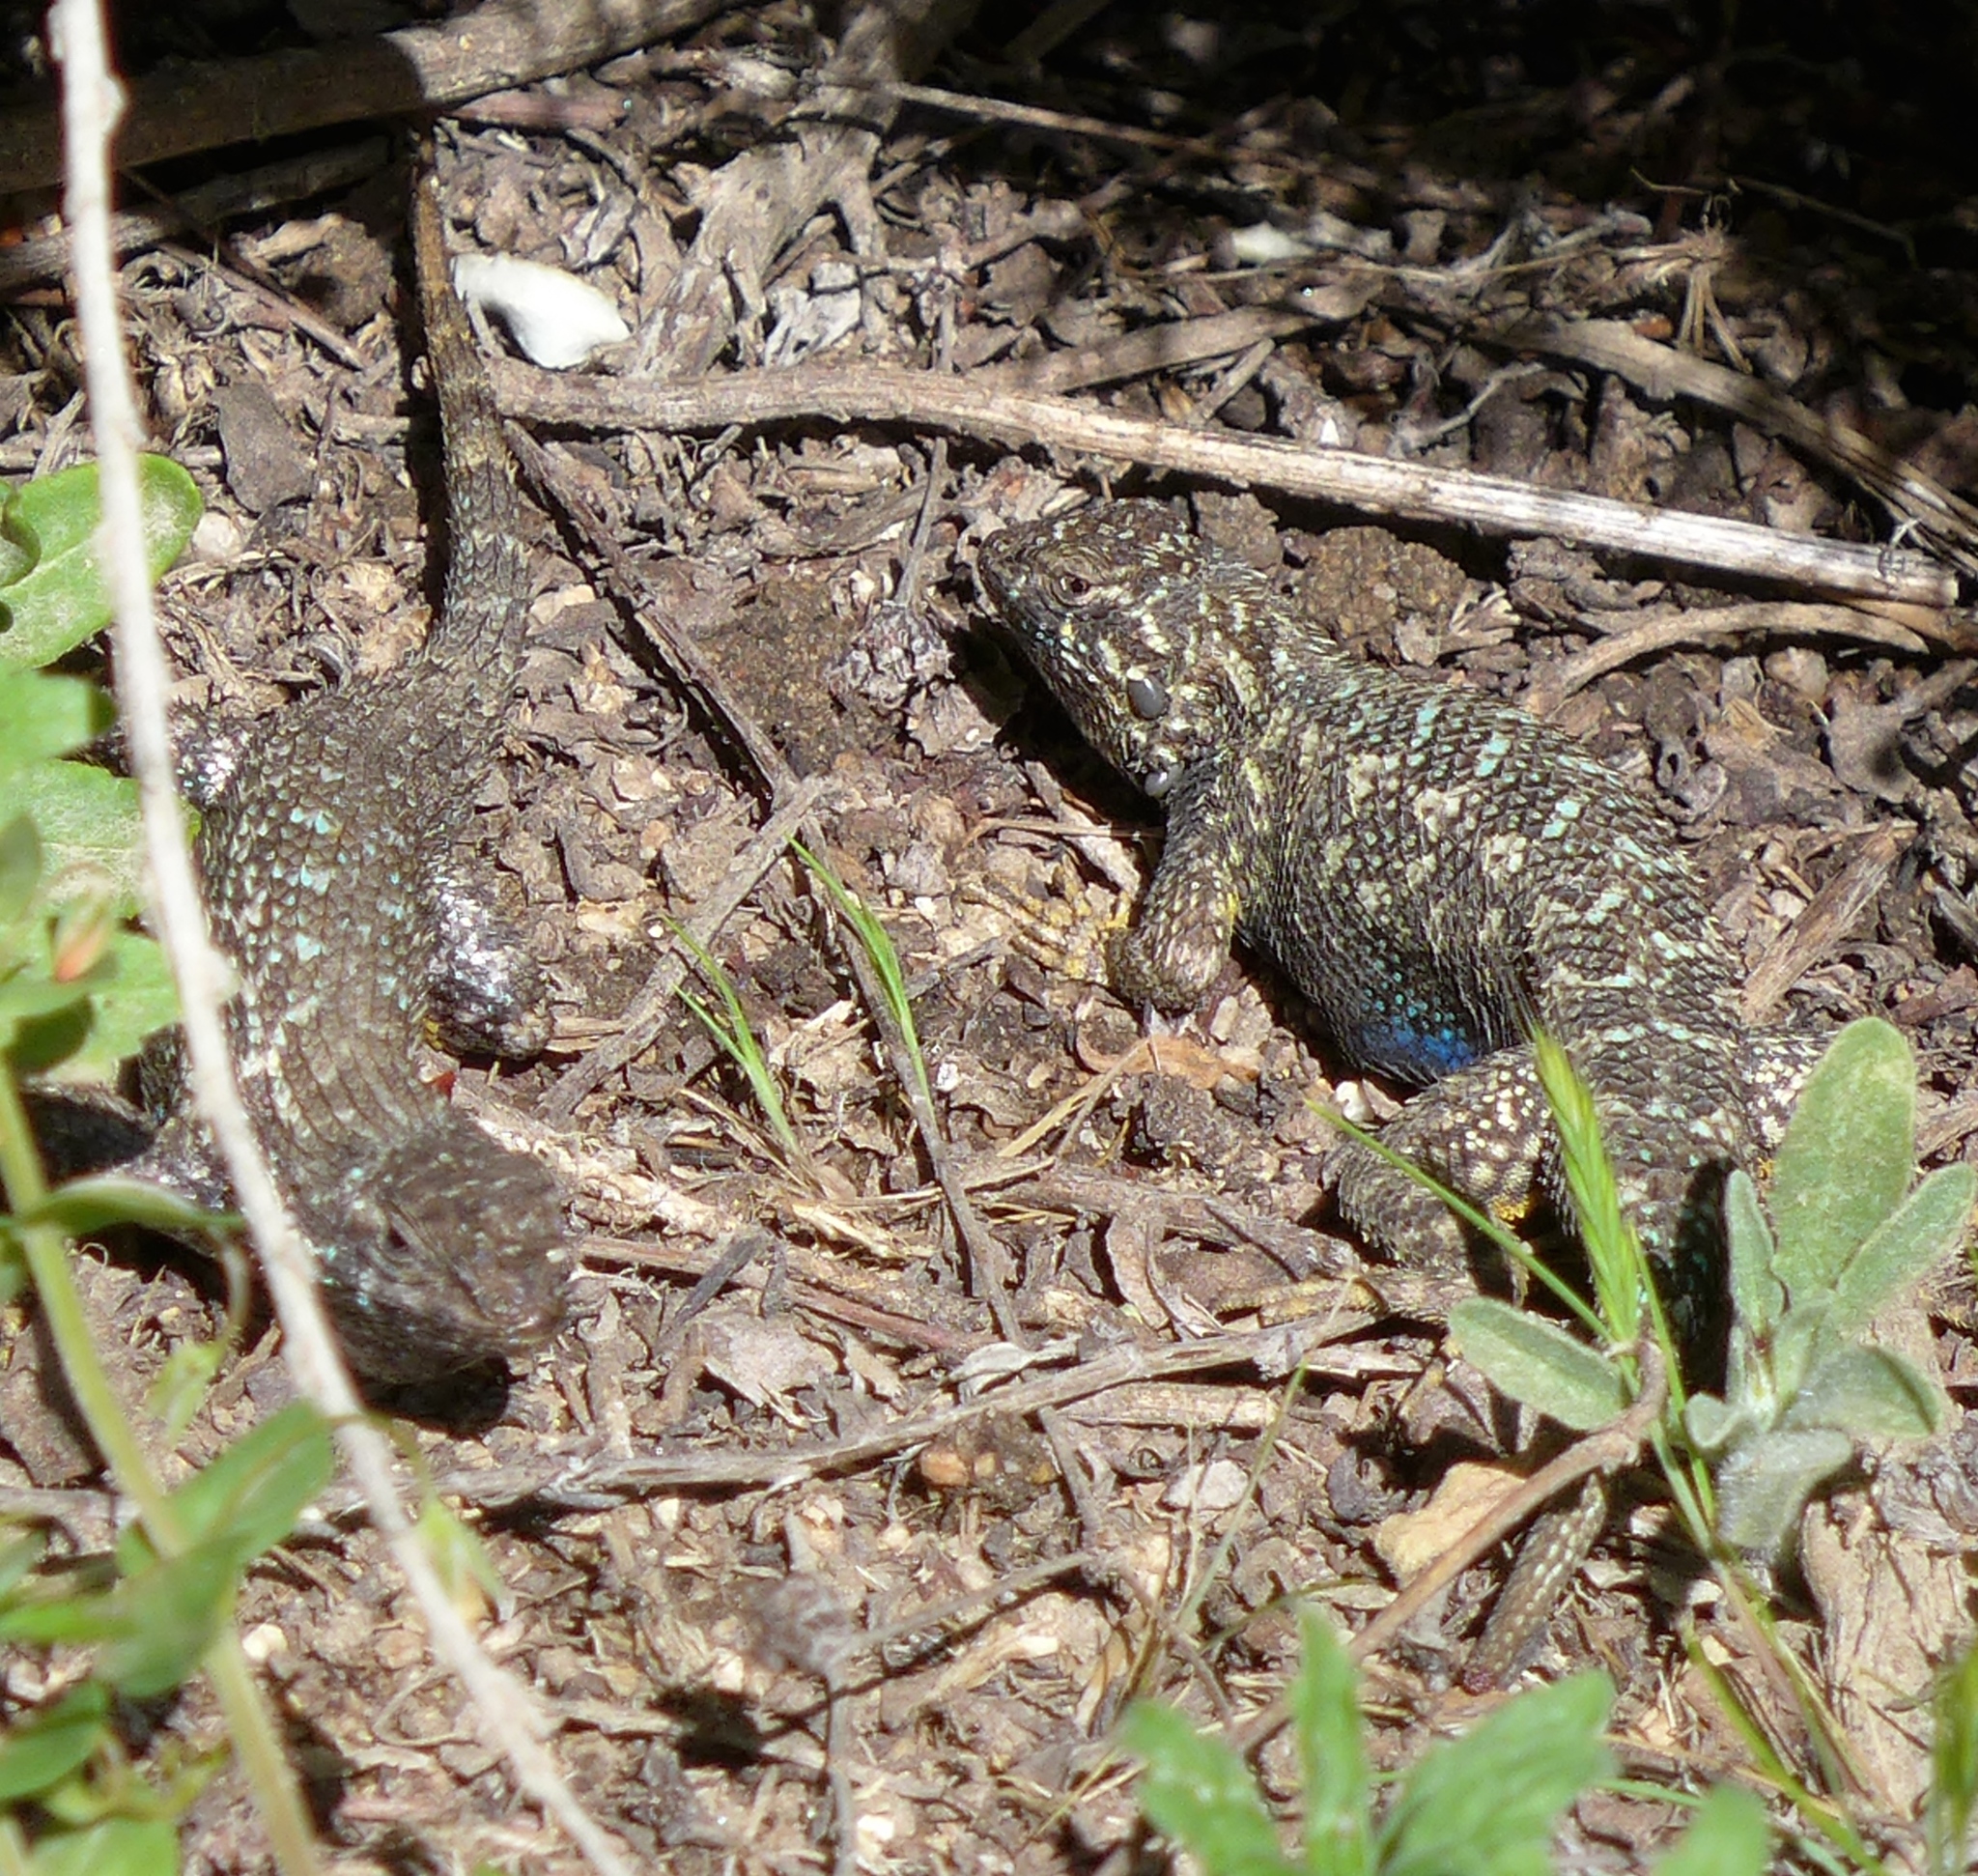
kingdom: Animalia
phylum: Chordata
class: Squamata
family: Phrynosomatidae
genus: Sceloporus
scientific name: Sceloporus occidentalis
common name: Western fence lizard
